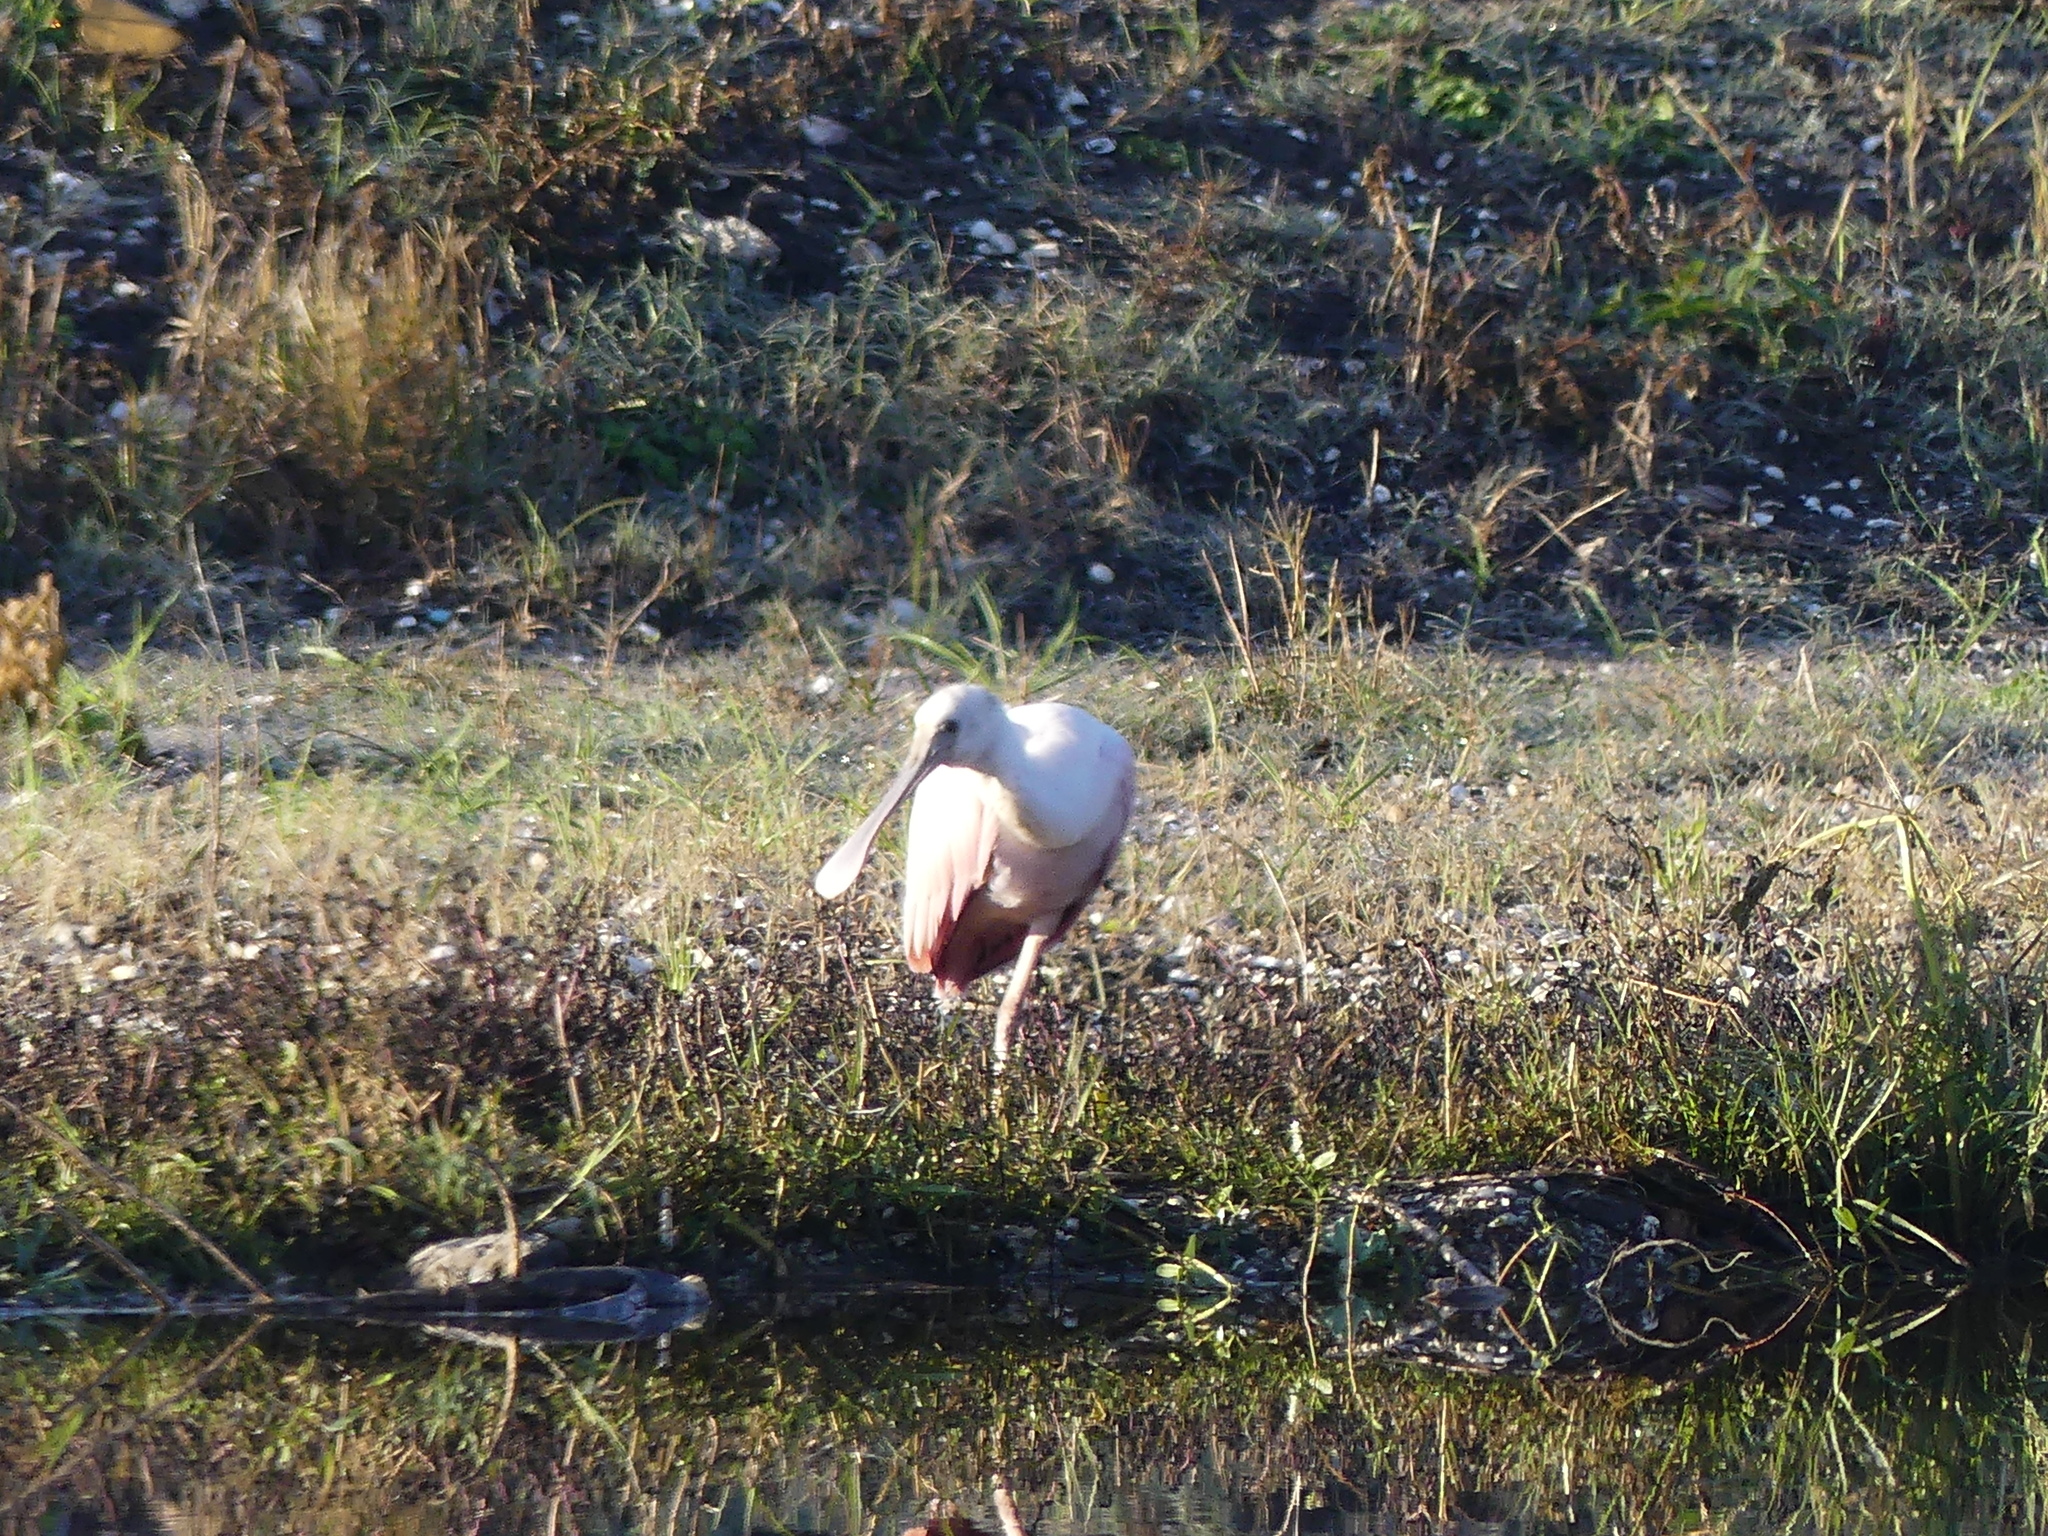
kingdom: Animalia
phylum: Chordata
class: Aves
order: Pelecaniformes
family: Threskiornithidae
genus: Platalea
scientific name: Platalea ajaja
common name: Roseate spoonbill
